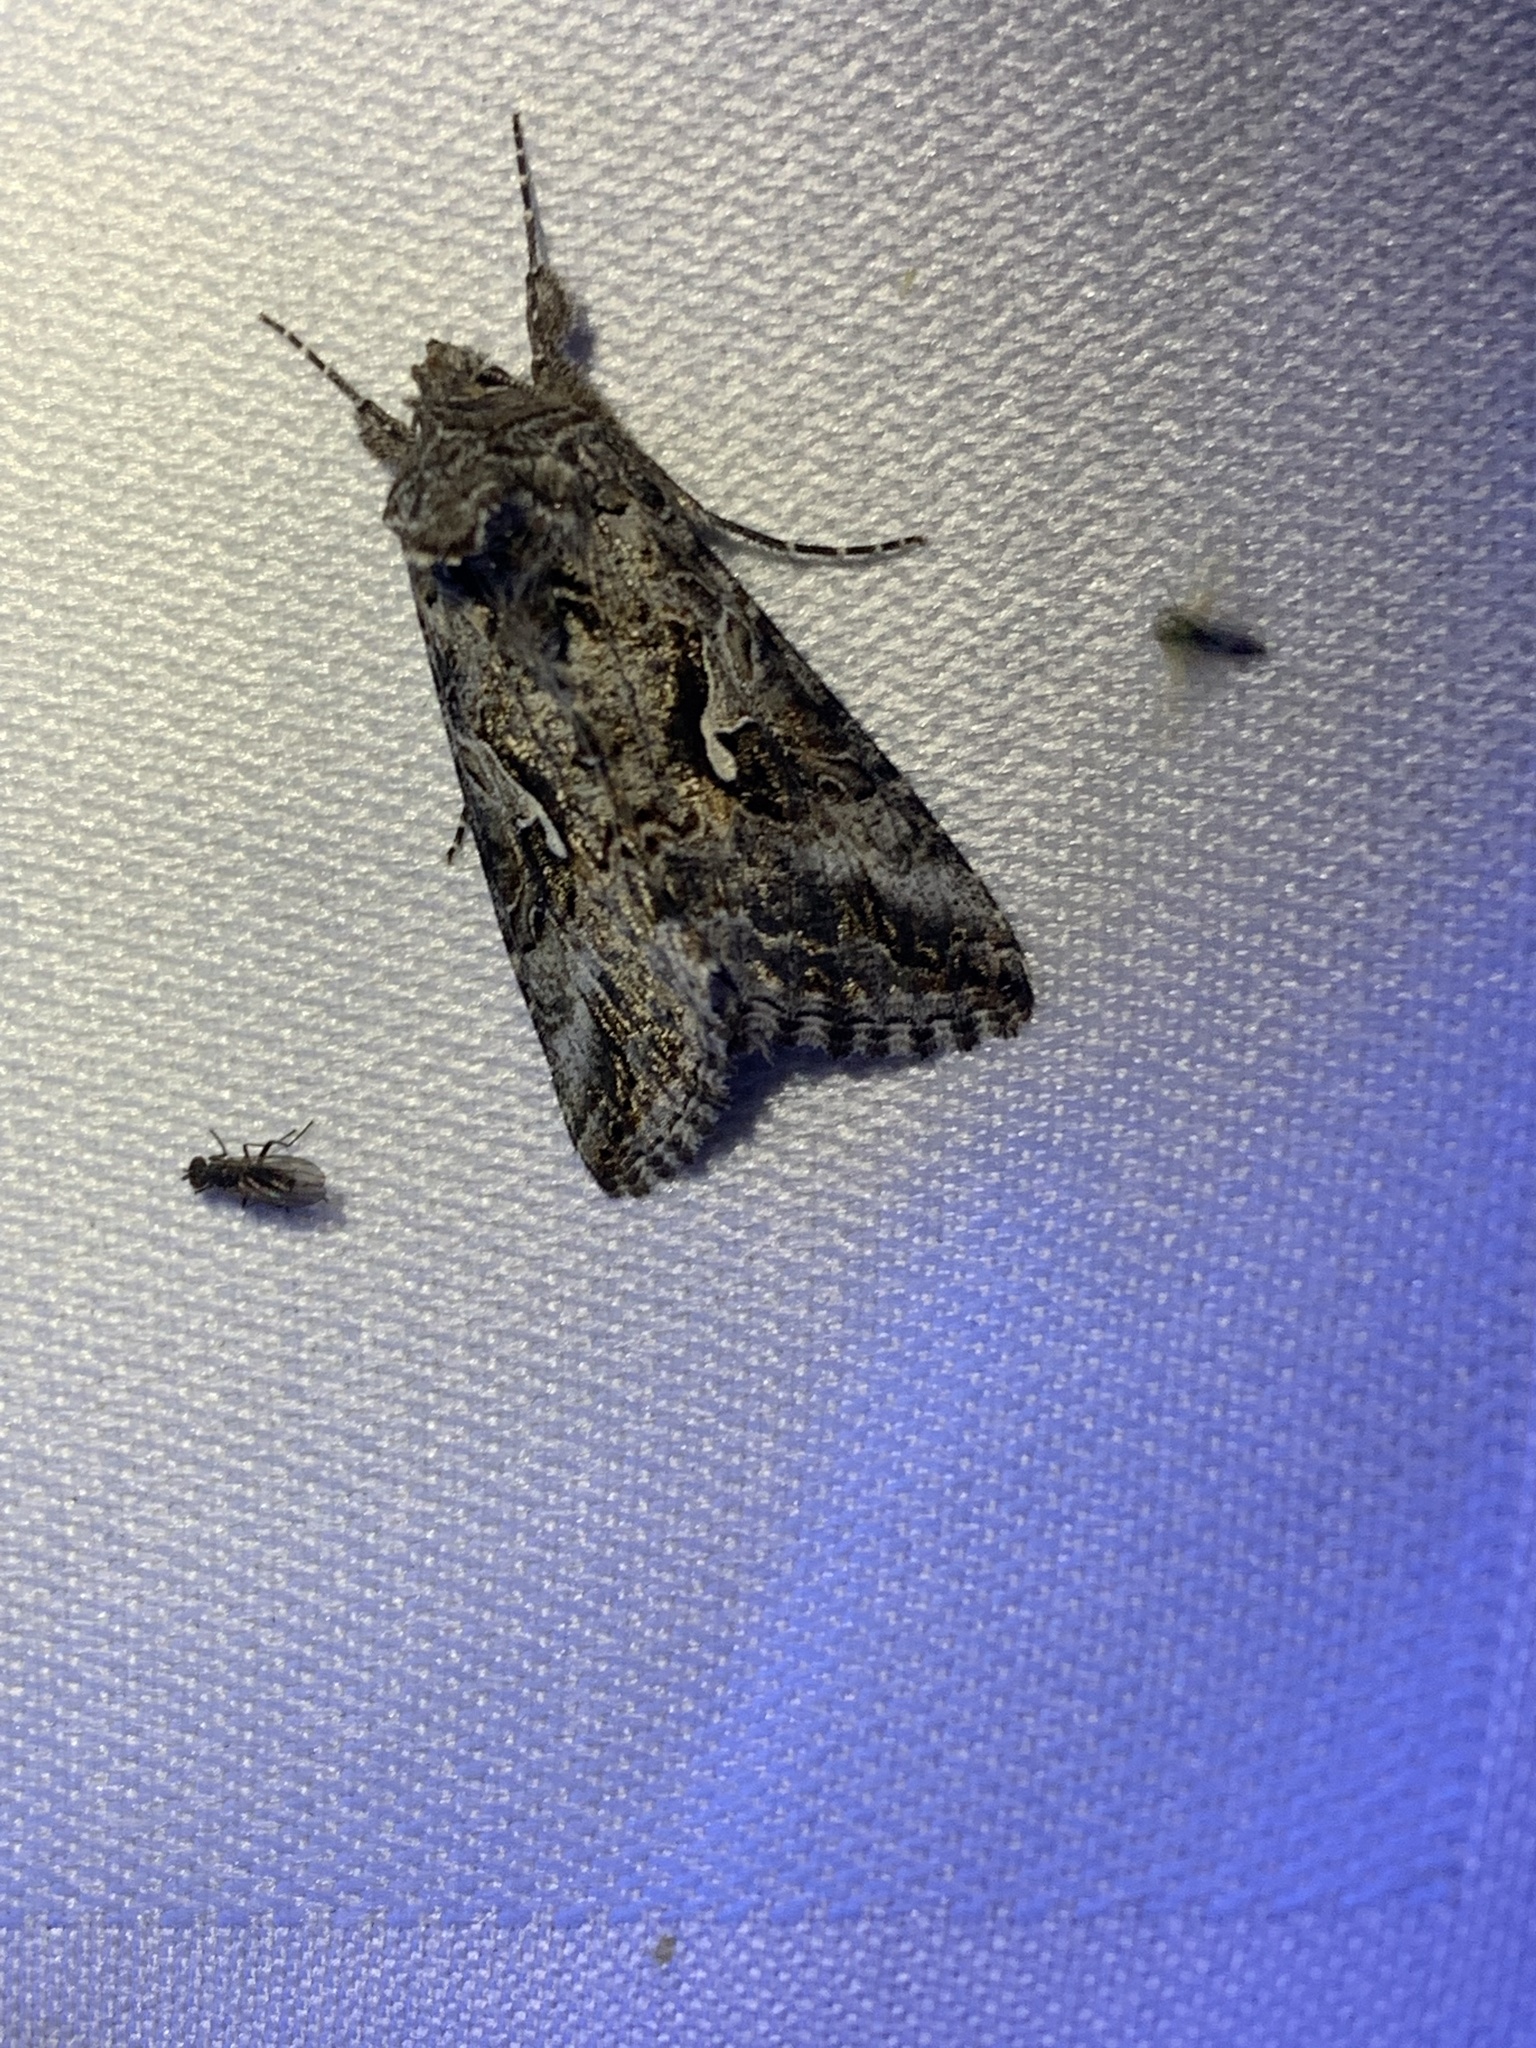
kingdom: Animalia
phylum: Arthropoda
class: Insecta
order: Lepidoptera
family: Noctuidae
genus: Autographa
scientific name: Autographa californica
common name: Alfalfa looper
